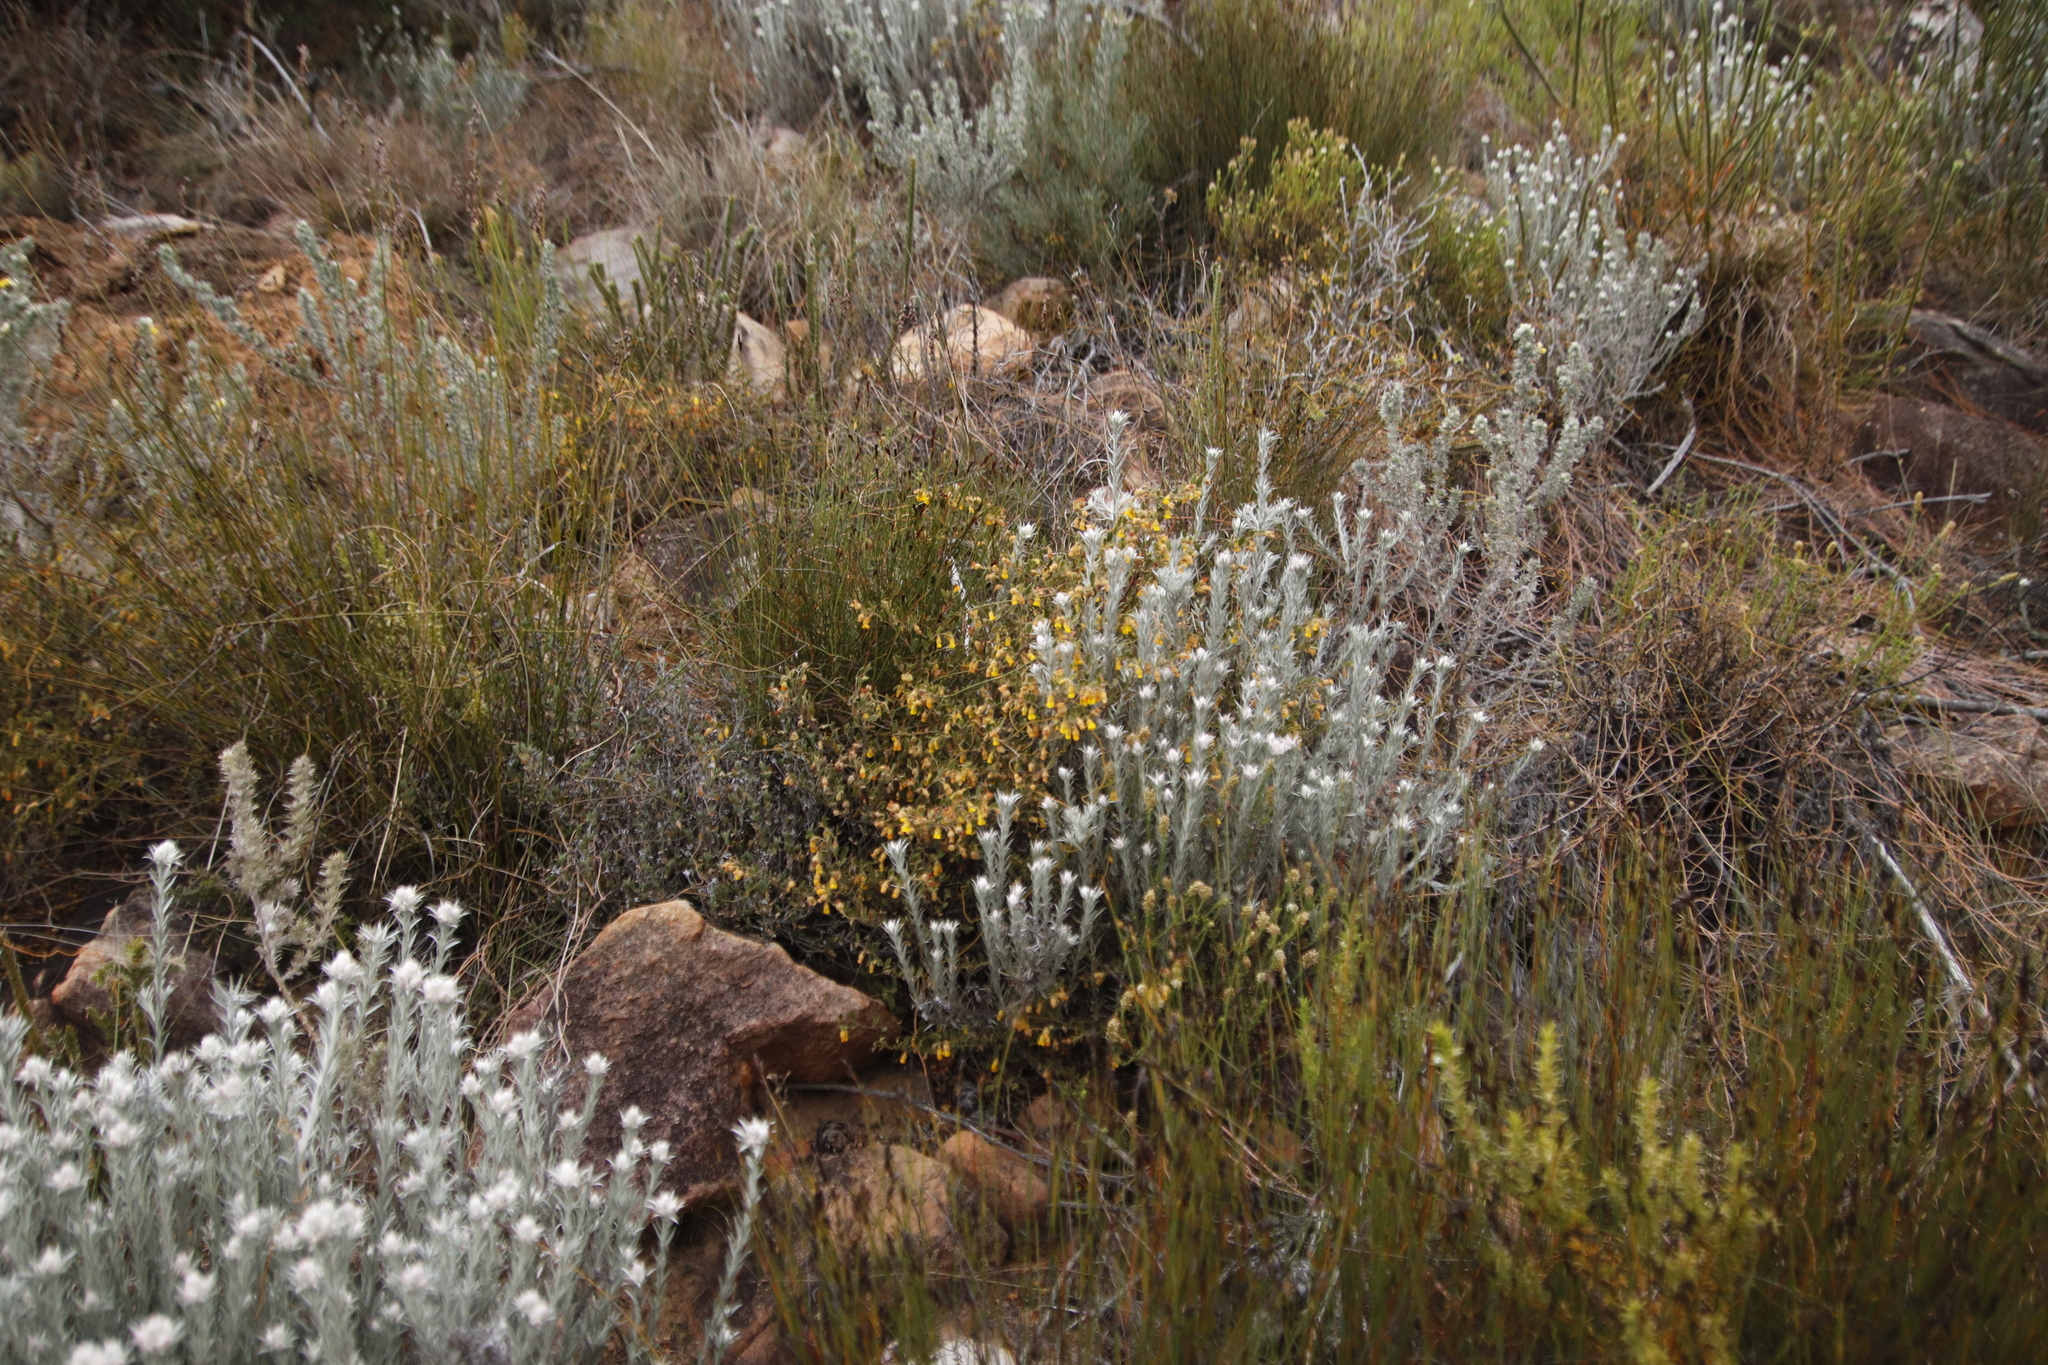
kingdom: Plantae
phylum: Tracheophyta
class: Magnoliopsida
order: Malvales
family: Malvaceae
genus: Hermannia
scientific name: Hermannia decipiens
